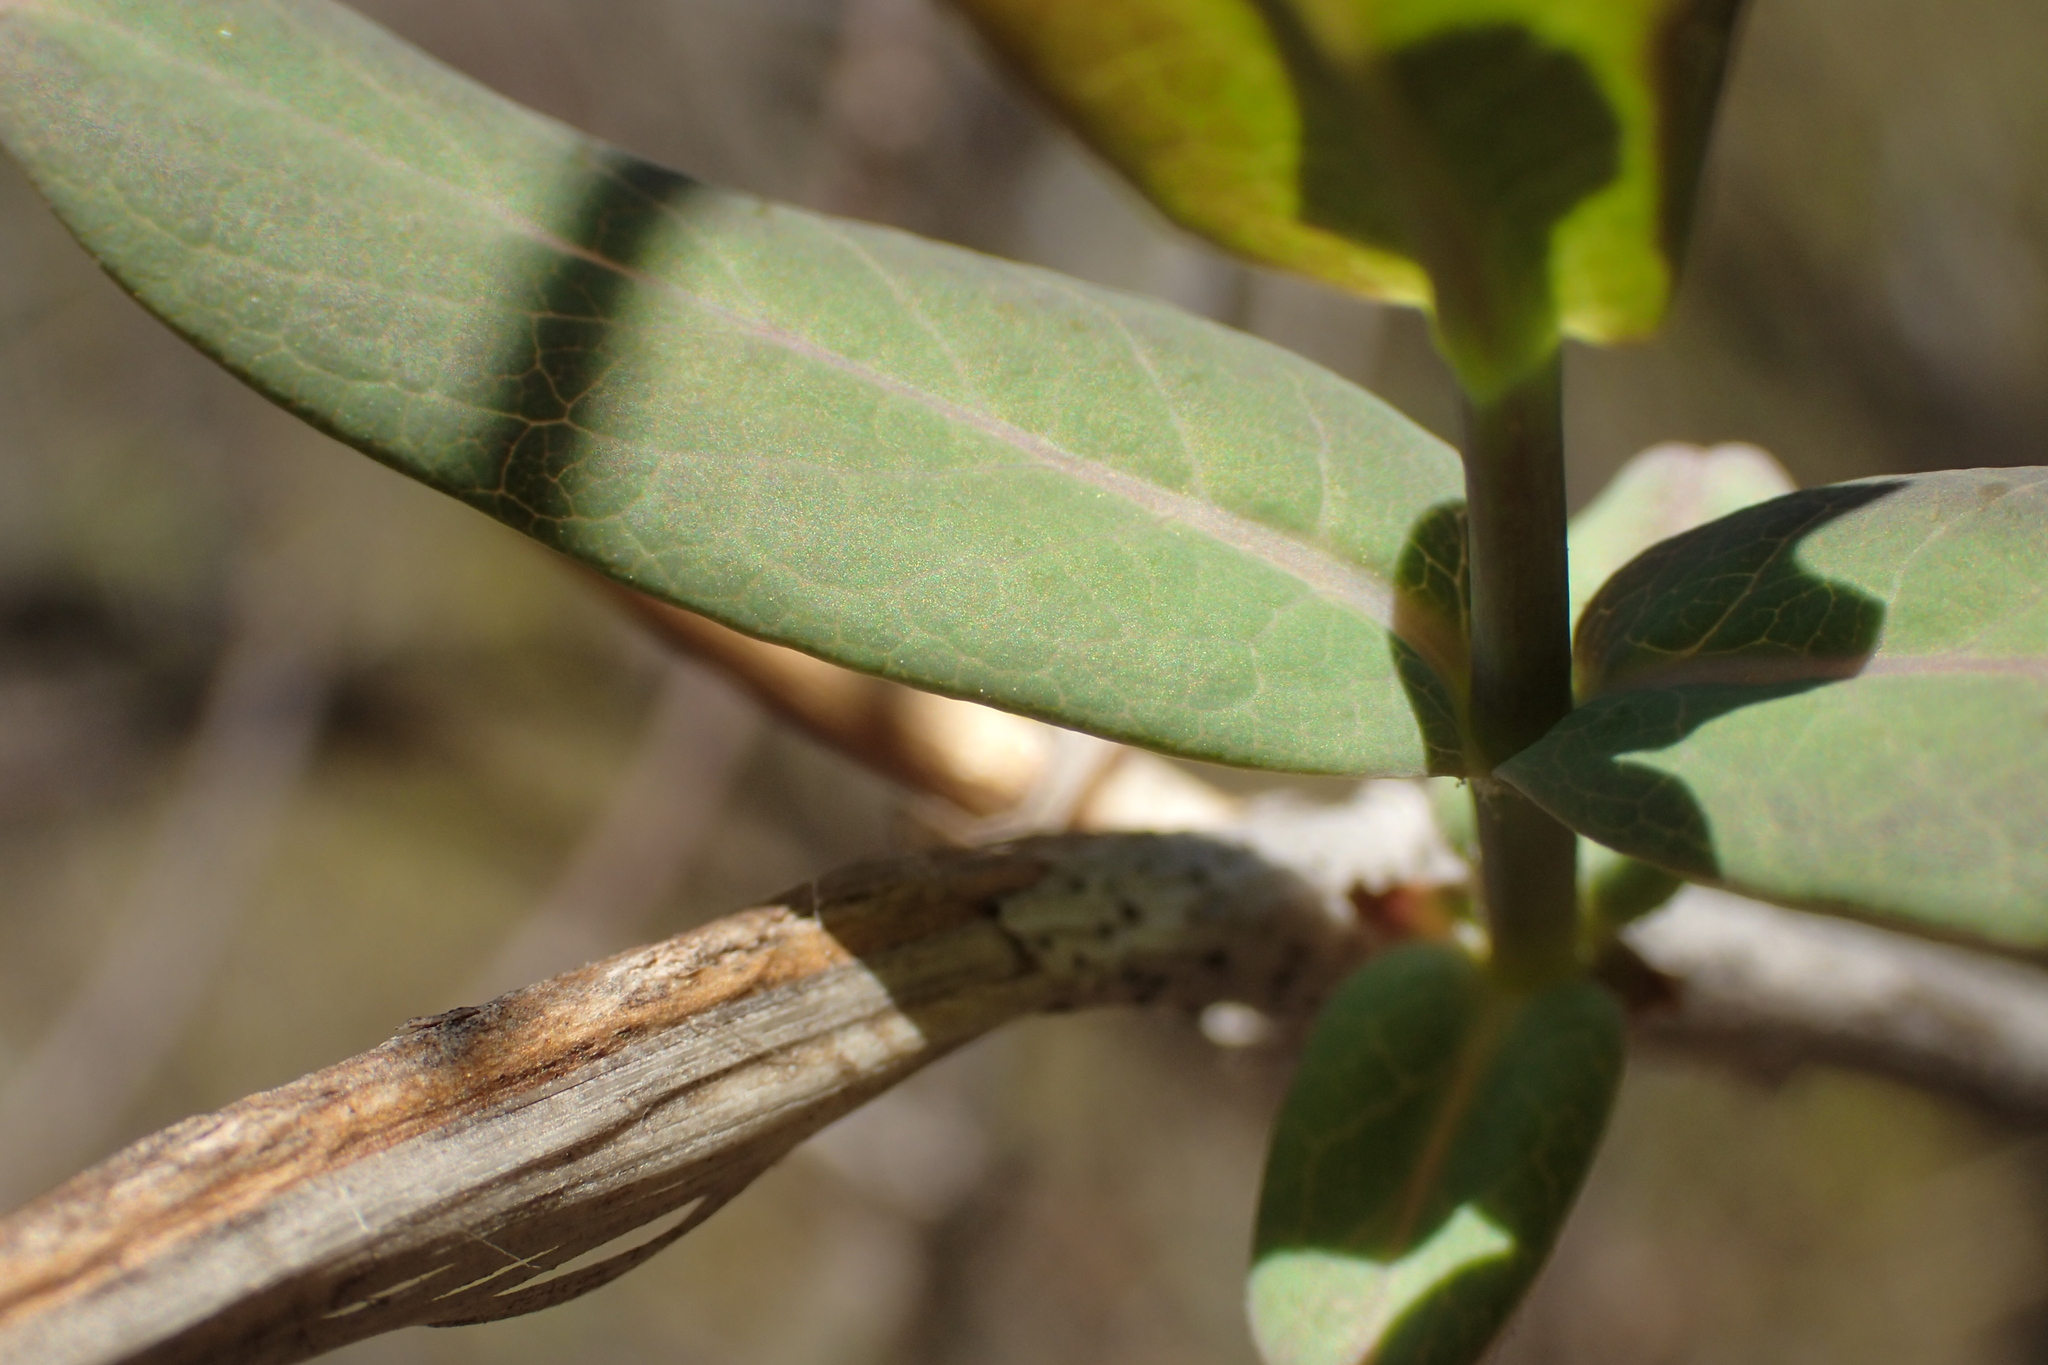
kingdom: Plantae
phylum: Tracheophyta
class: Magnoliopsida
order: Dipsacales
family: Caprifoliaceae
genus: Lonicera
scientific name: Lonicera dioica
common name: Limber honeysuckle
